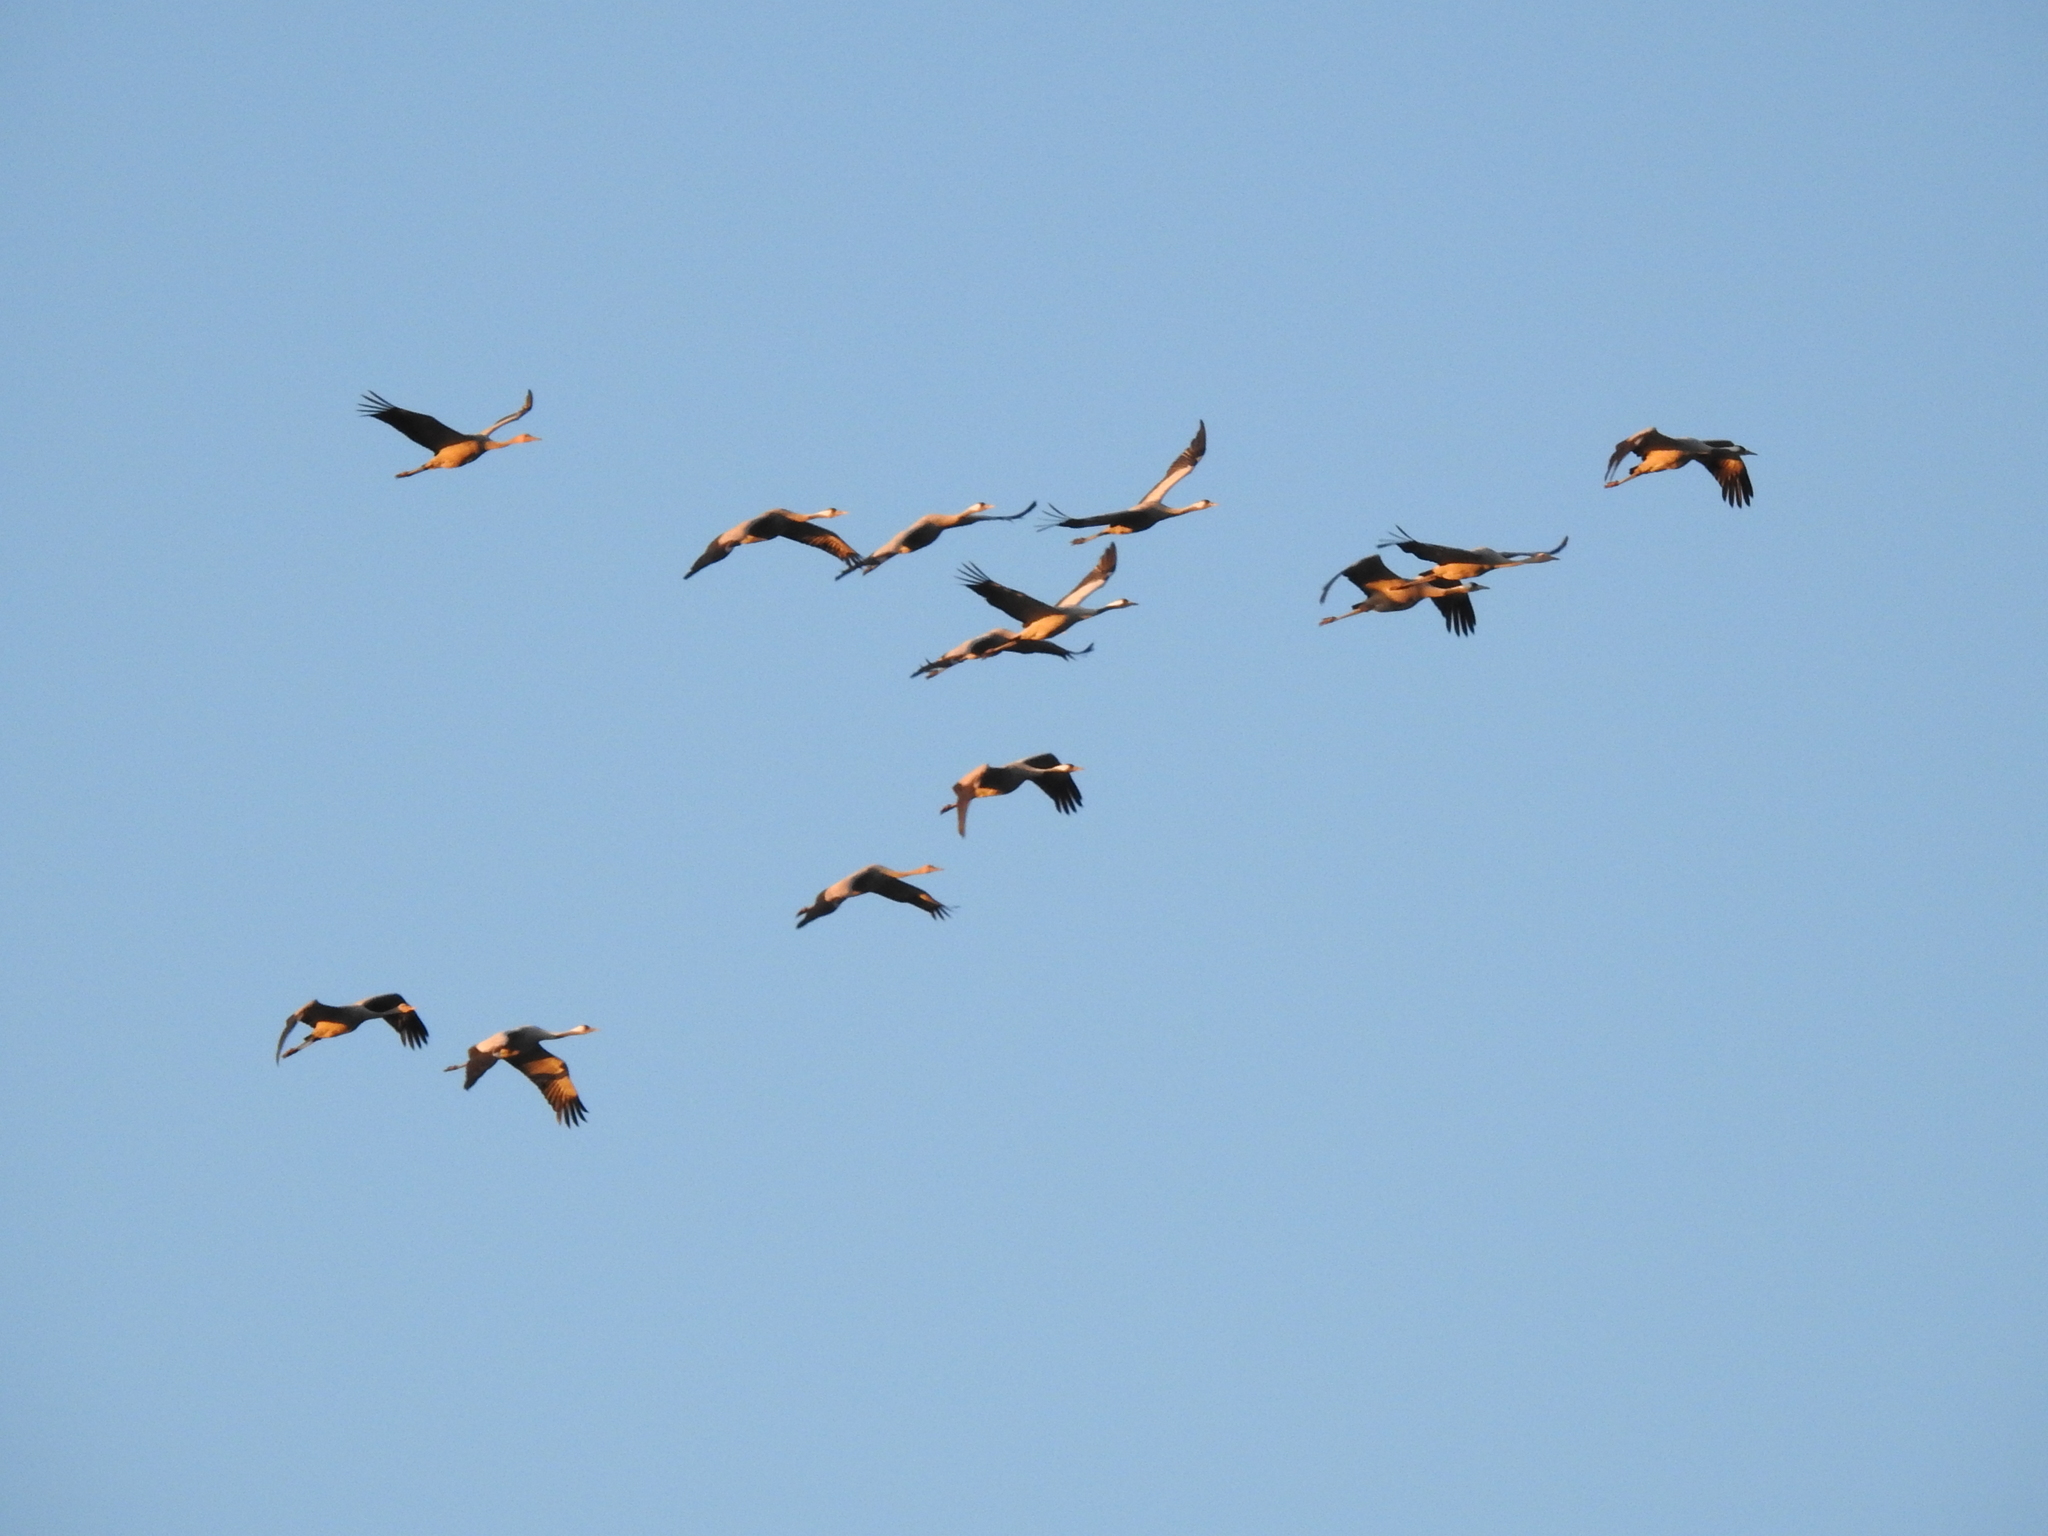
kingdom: Animalia
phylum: Chordata
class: Aves
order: Gruiformes
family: Gruidae
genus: Grus
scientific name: Grus grus
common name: Common crane
